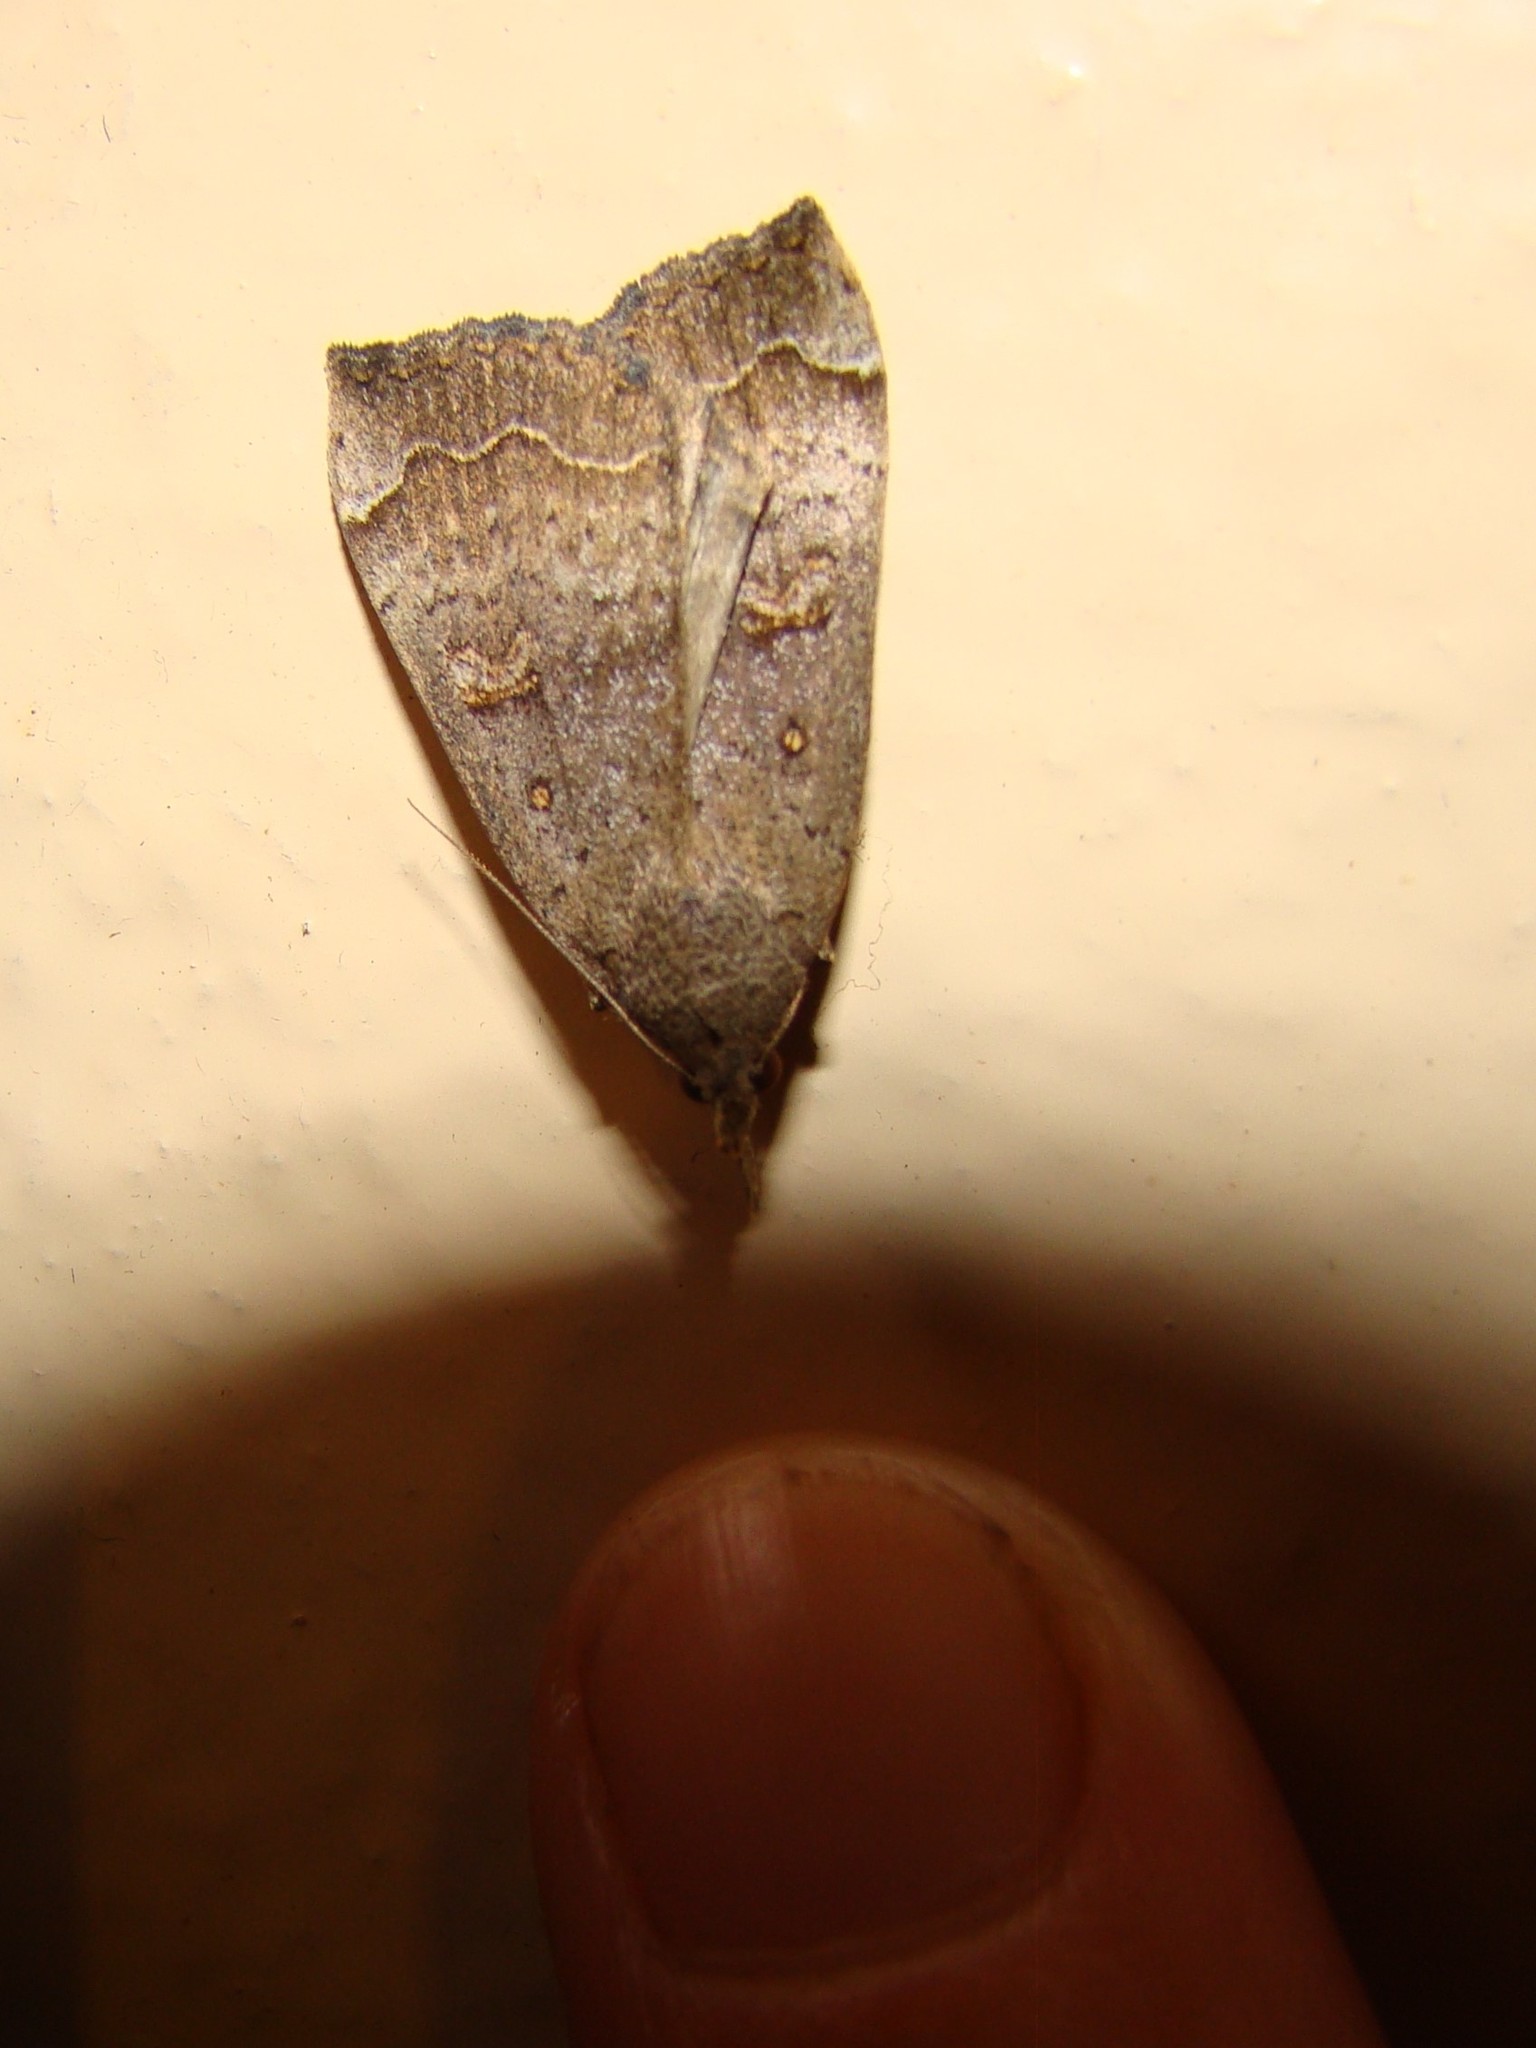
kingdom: Animalia
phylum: Arthropoda
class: Insecta
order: Lepidoptera
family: Erebidae
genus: Rhapsa
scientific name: Rhapsa scotosialis
